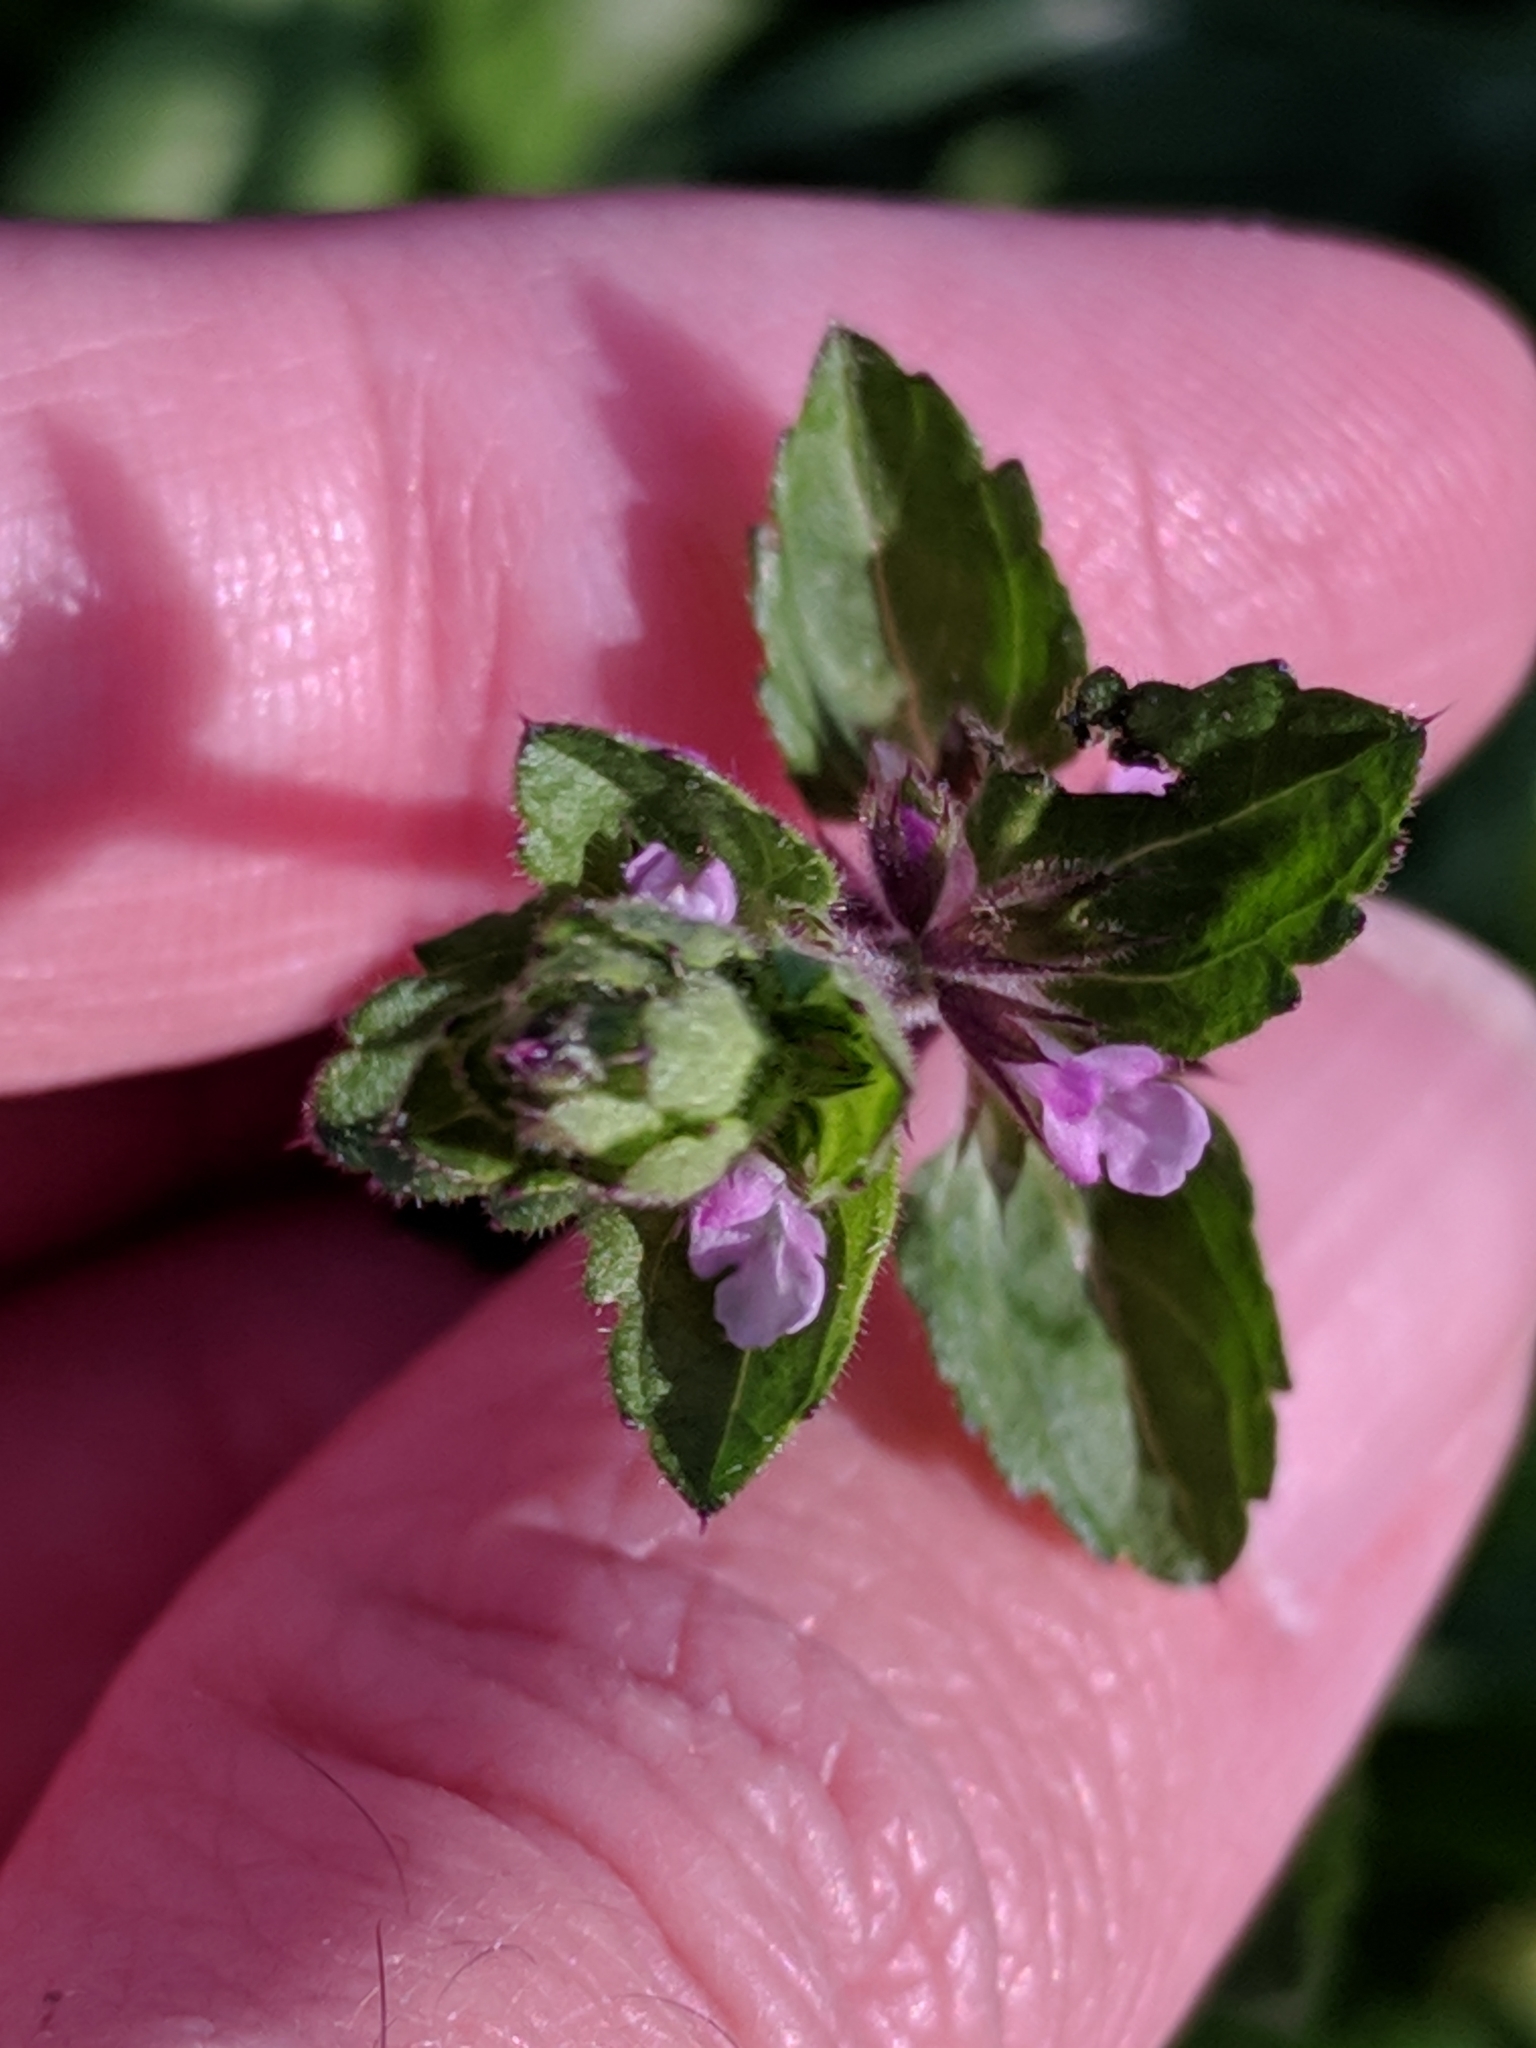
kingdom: Plantae
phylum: Tracheophyta
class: Magnoliopsida
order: Lamiales
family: Lamiaceae
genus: Stachys
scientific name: Stachys
